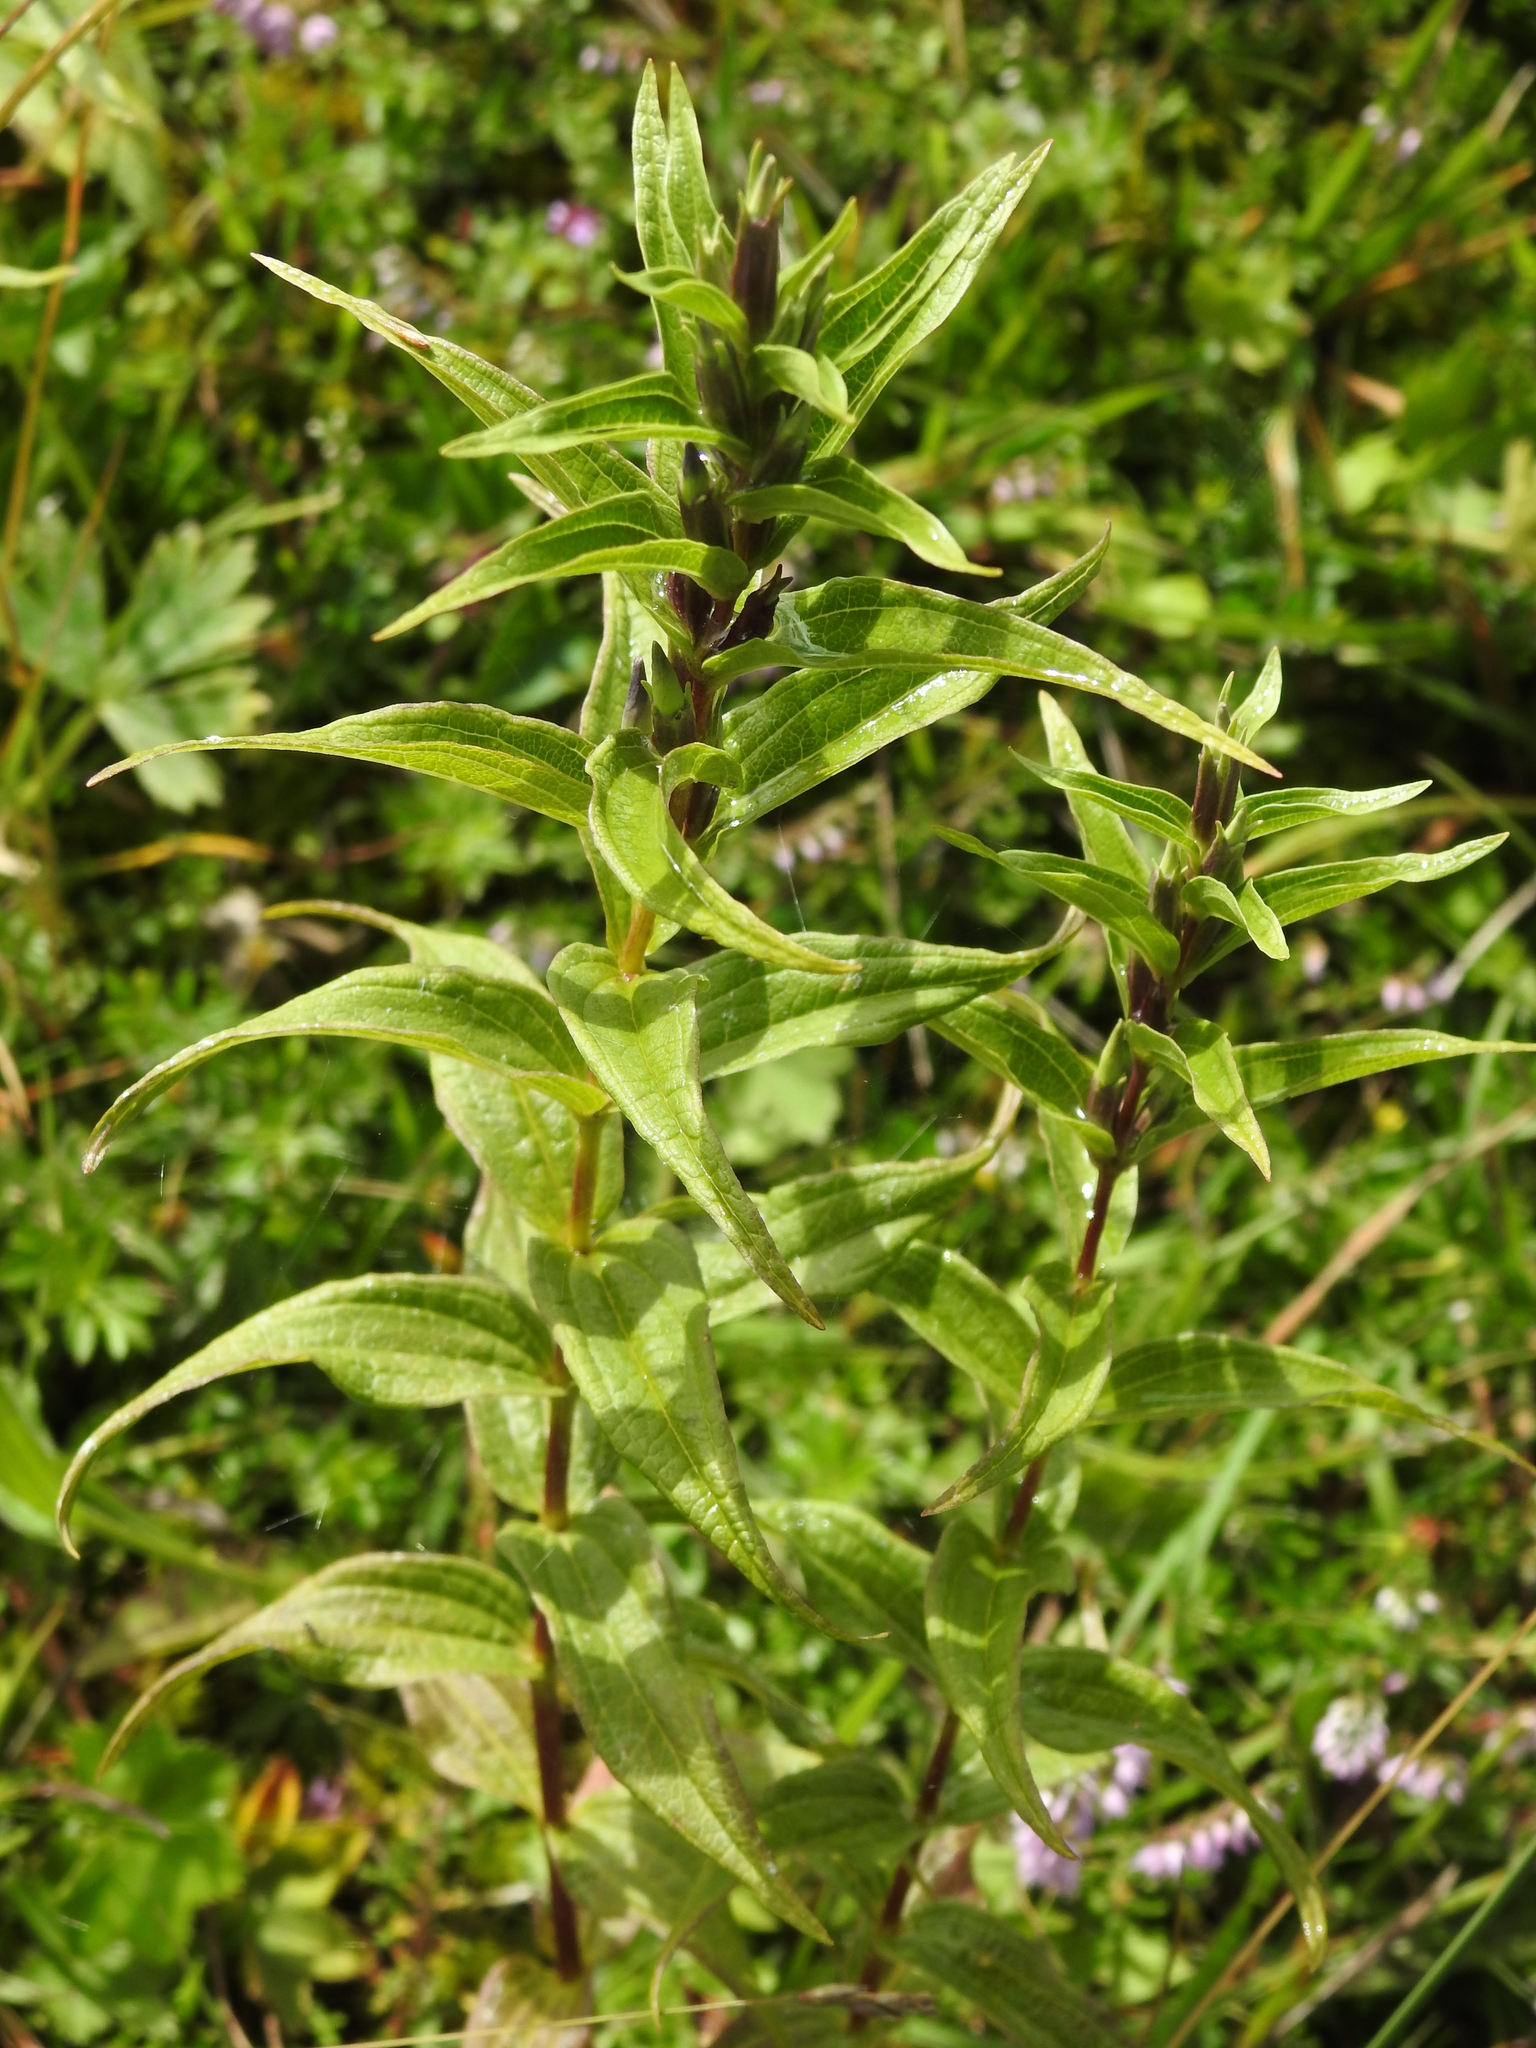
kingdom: Plantae
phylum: Tracheophyta
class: Magnoliopsida
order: Gentianales
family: Gentianaceae
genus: Gentiana
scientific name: Gentiana asclepiadea
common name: Willow gentian
